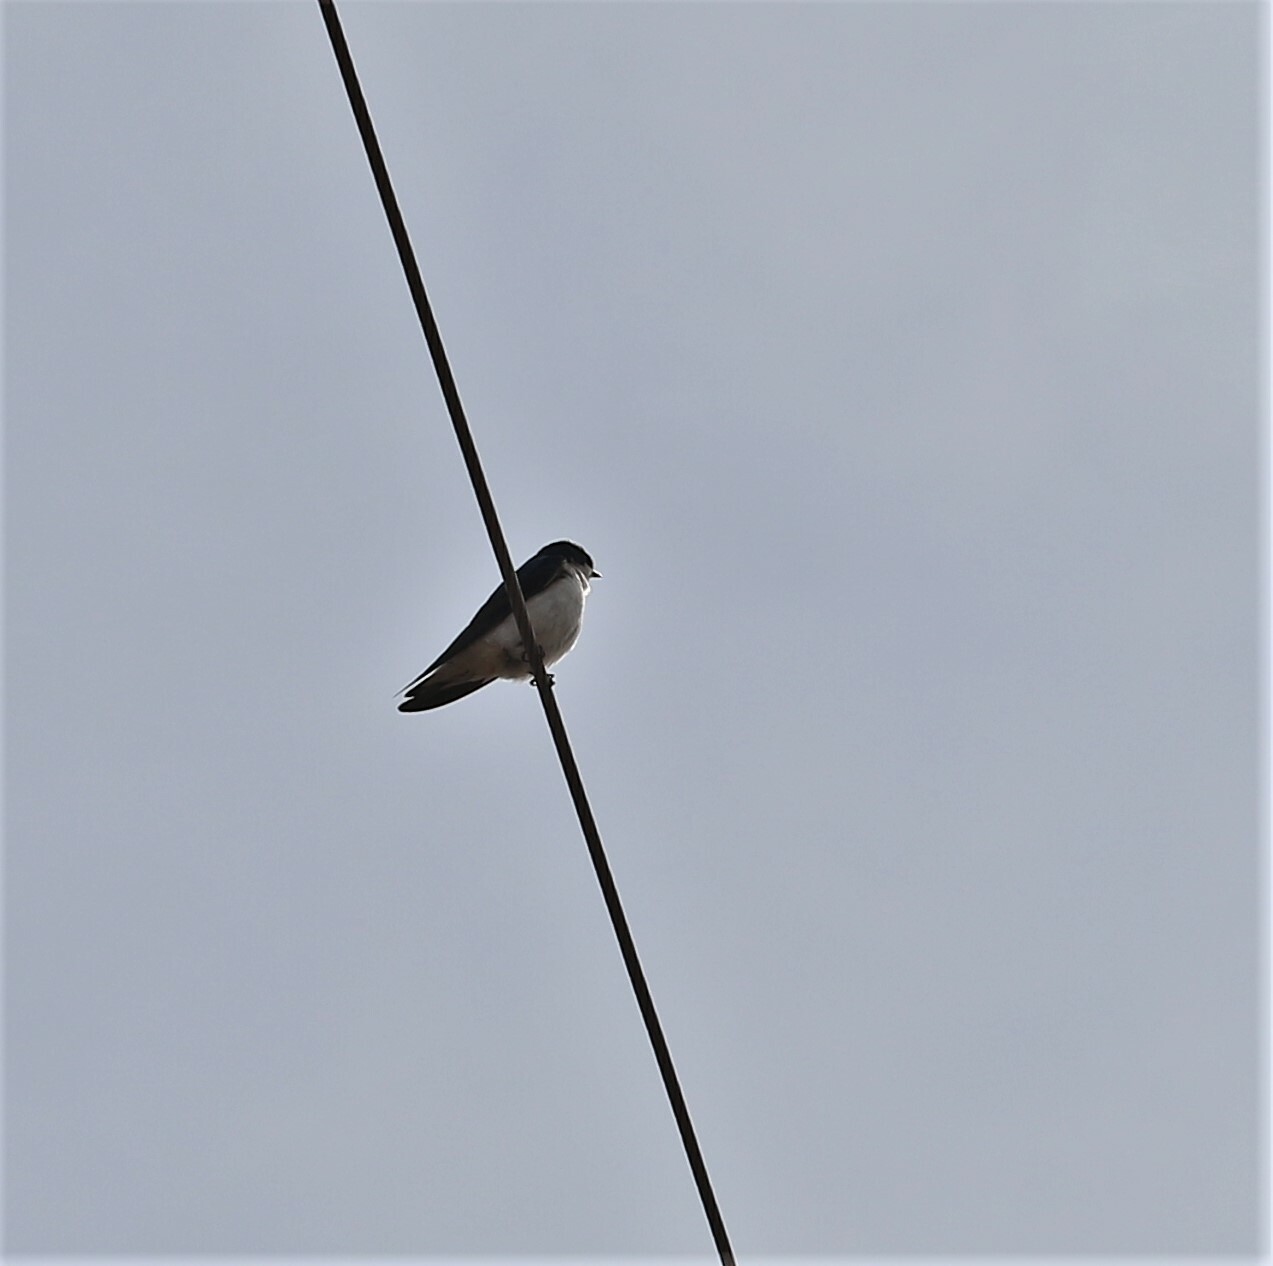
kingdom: Animalia
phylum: Chordata
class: Aves
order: Passeriformes
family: Hirundinidae
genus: Tachycineta
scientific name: Tachycineta bicolor
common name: Tree swallow
